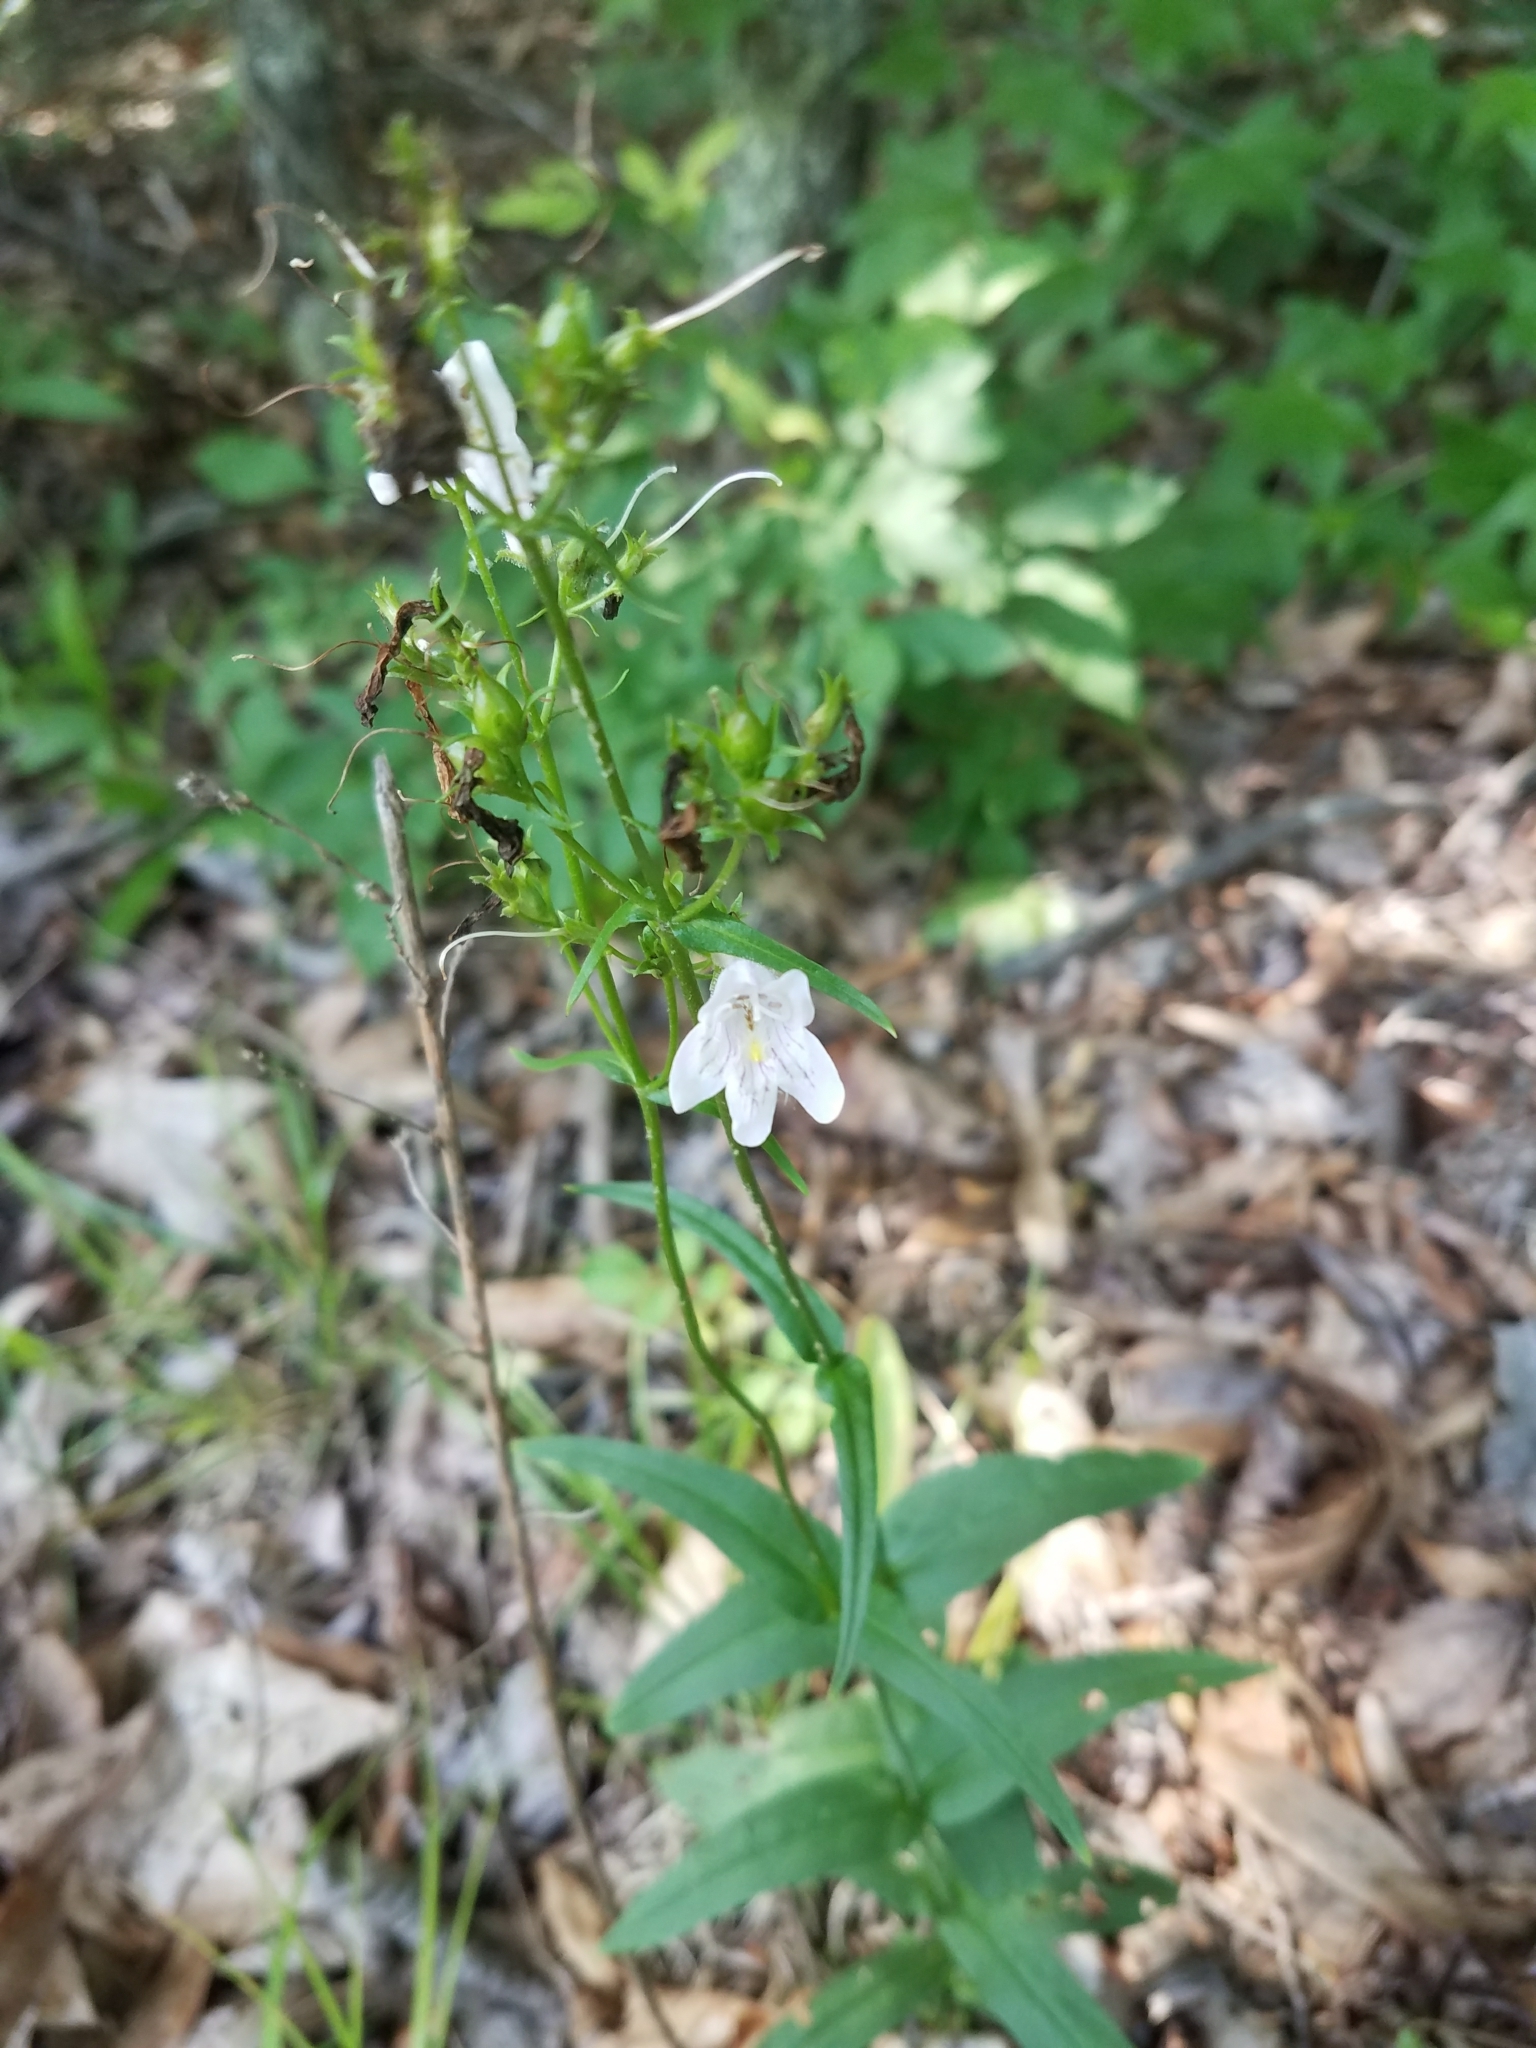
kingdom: Plantae
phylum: Tracheophyta
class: Magnoliopsida
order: Lamiales
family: Plantaginaceae
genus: Penstemon
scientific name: Penstemon laevigatus
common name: Eastern beardtongue
